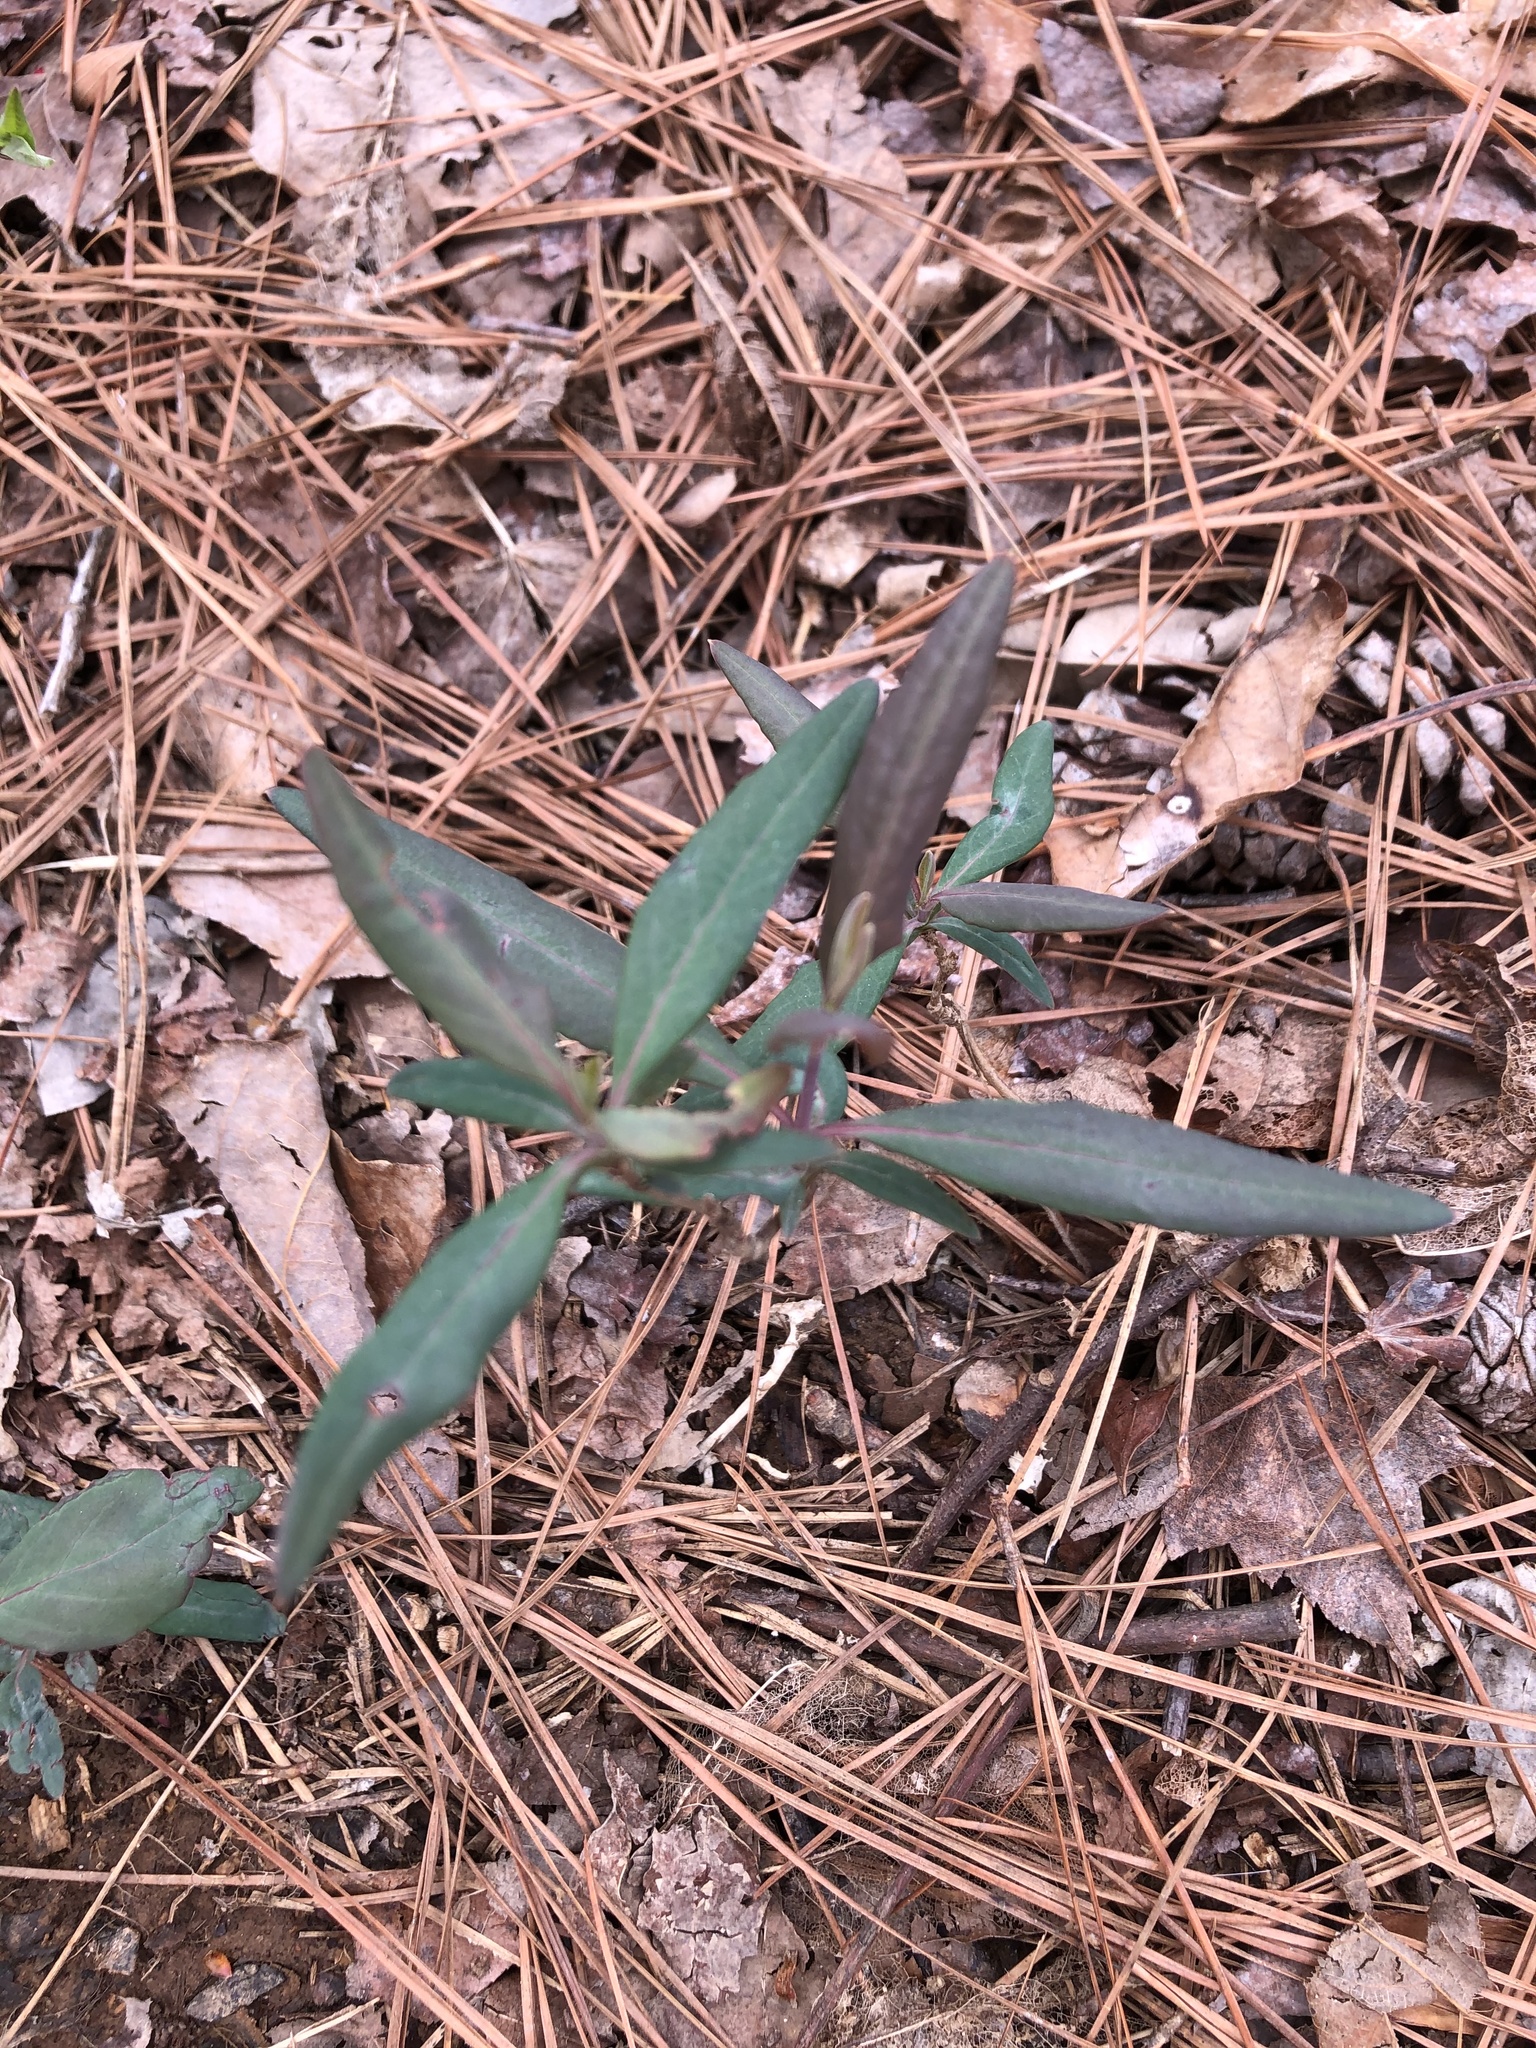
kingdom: Plantae
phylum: Tracheophyta
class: Magnoliopsida
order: Dipsacales
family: Caprifoliaceae
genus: Lonicera
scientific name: Lonicera sempervirens
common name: Coral honeysuckle
